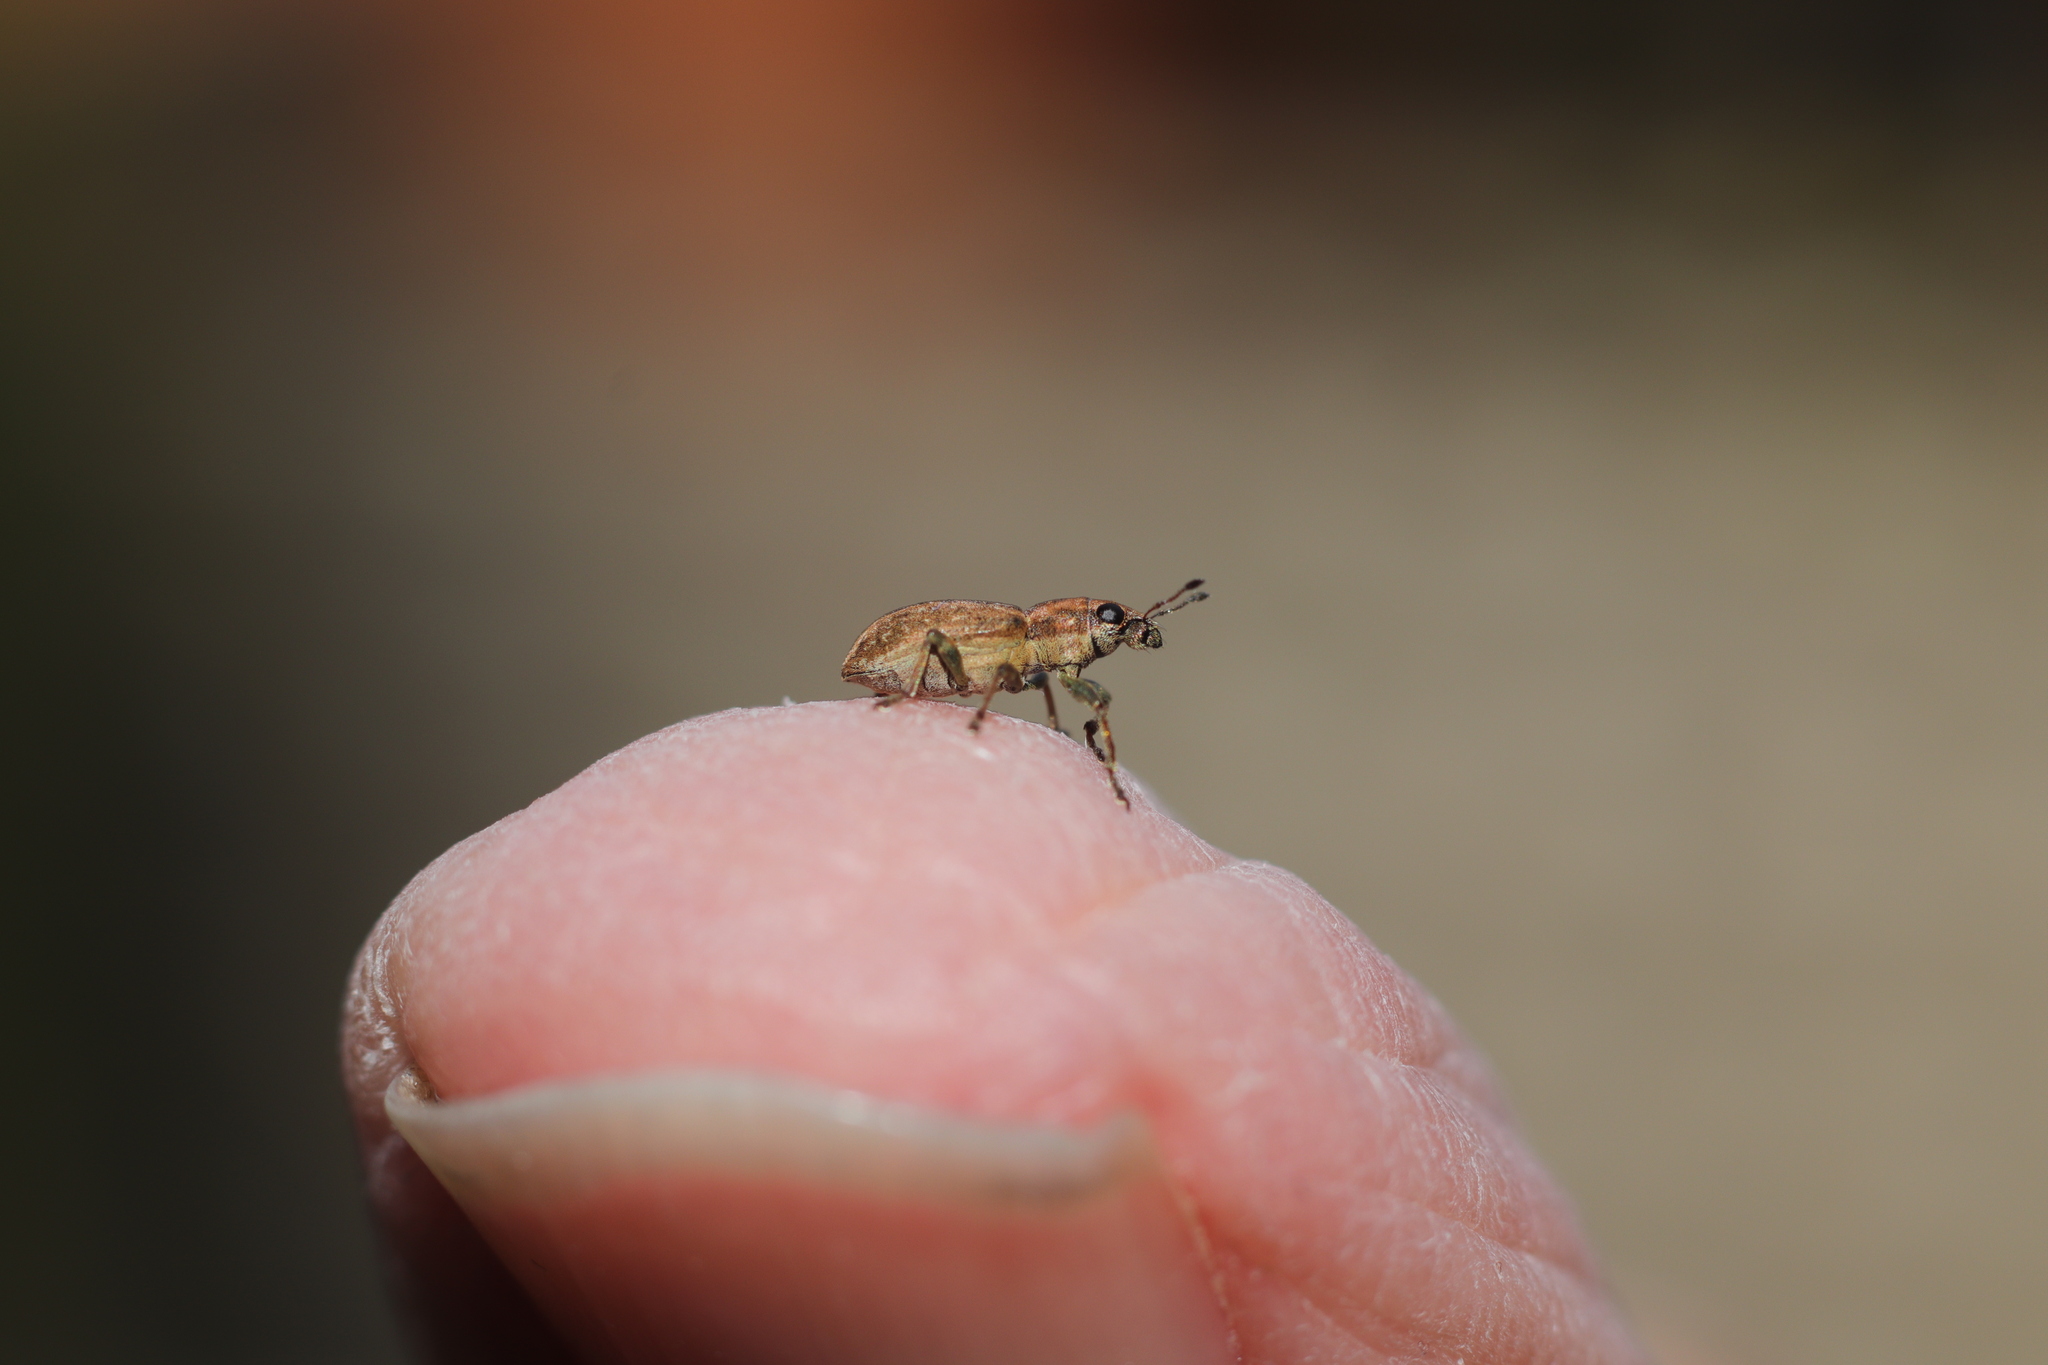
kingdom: Animalia
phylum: Arthropoda
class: Insecta
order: Coleoptera
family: Curculionidae
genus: Sitona
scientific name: Sitona obsoletus
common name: Weevil
